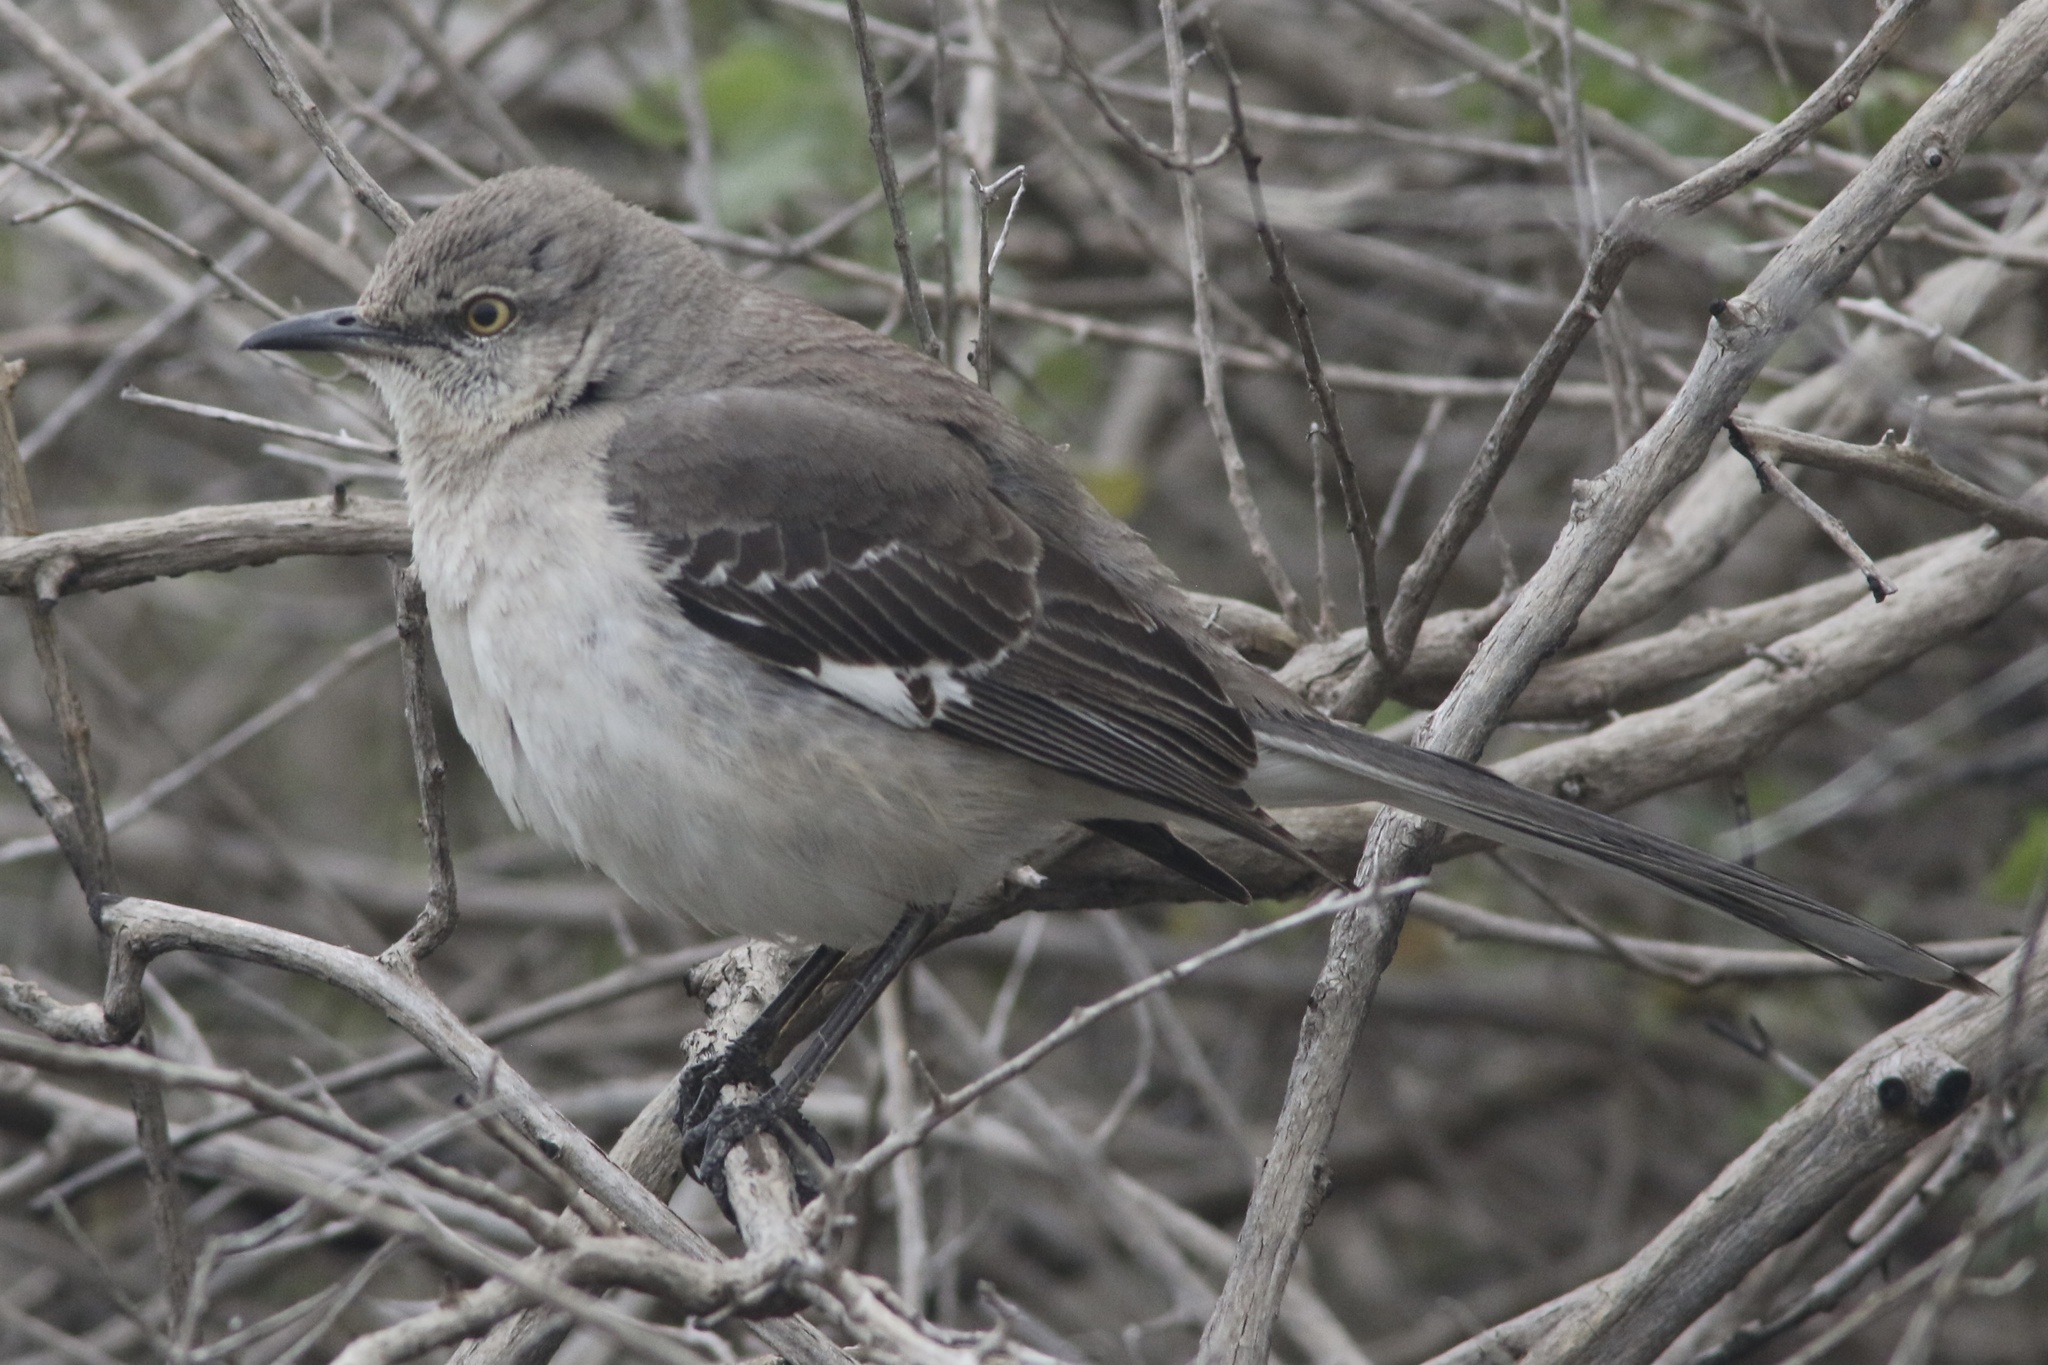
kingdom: Animalia
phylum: Chordata
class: Aves
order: Passeriformes
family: Mimidae
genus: Mimus
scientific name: Mimus polyglottos
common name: Northern mockingbird
